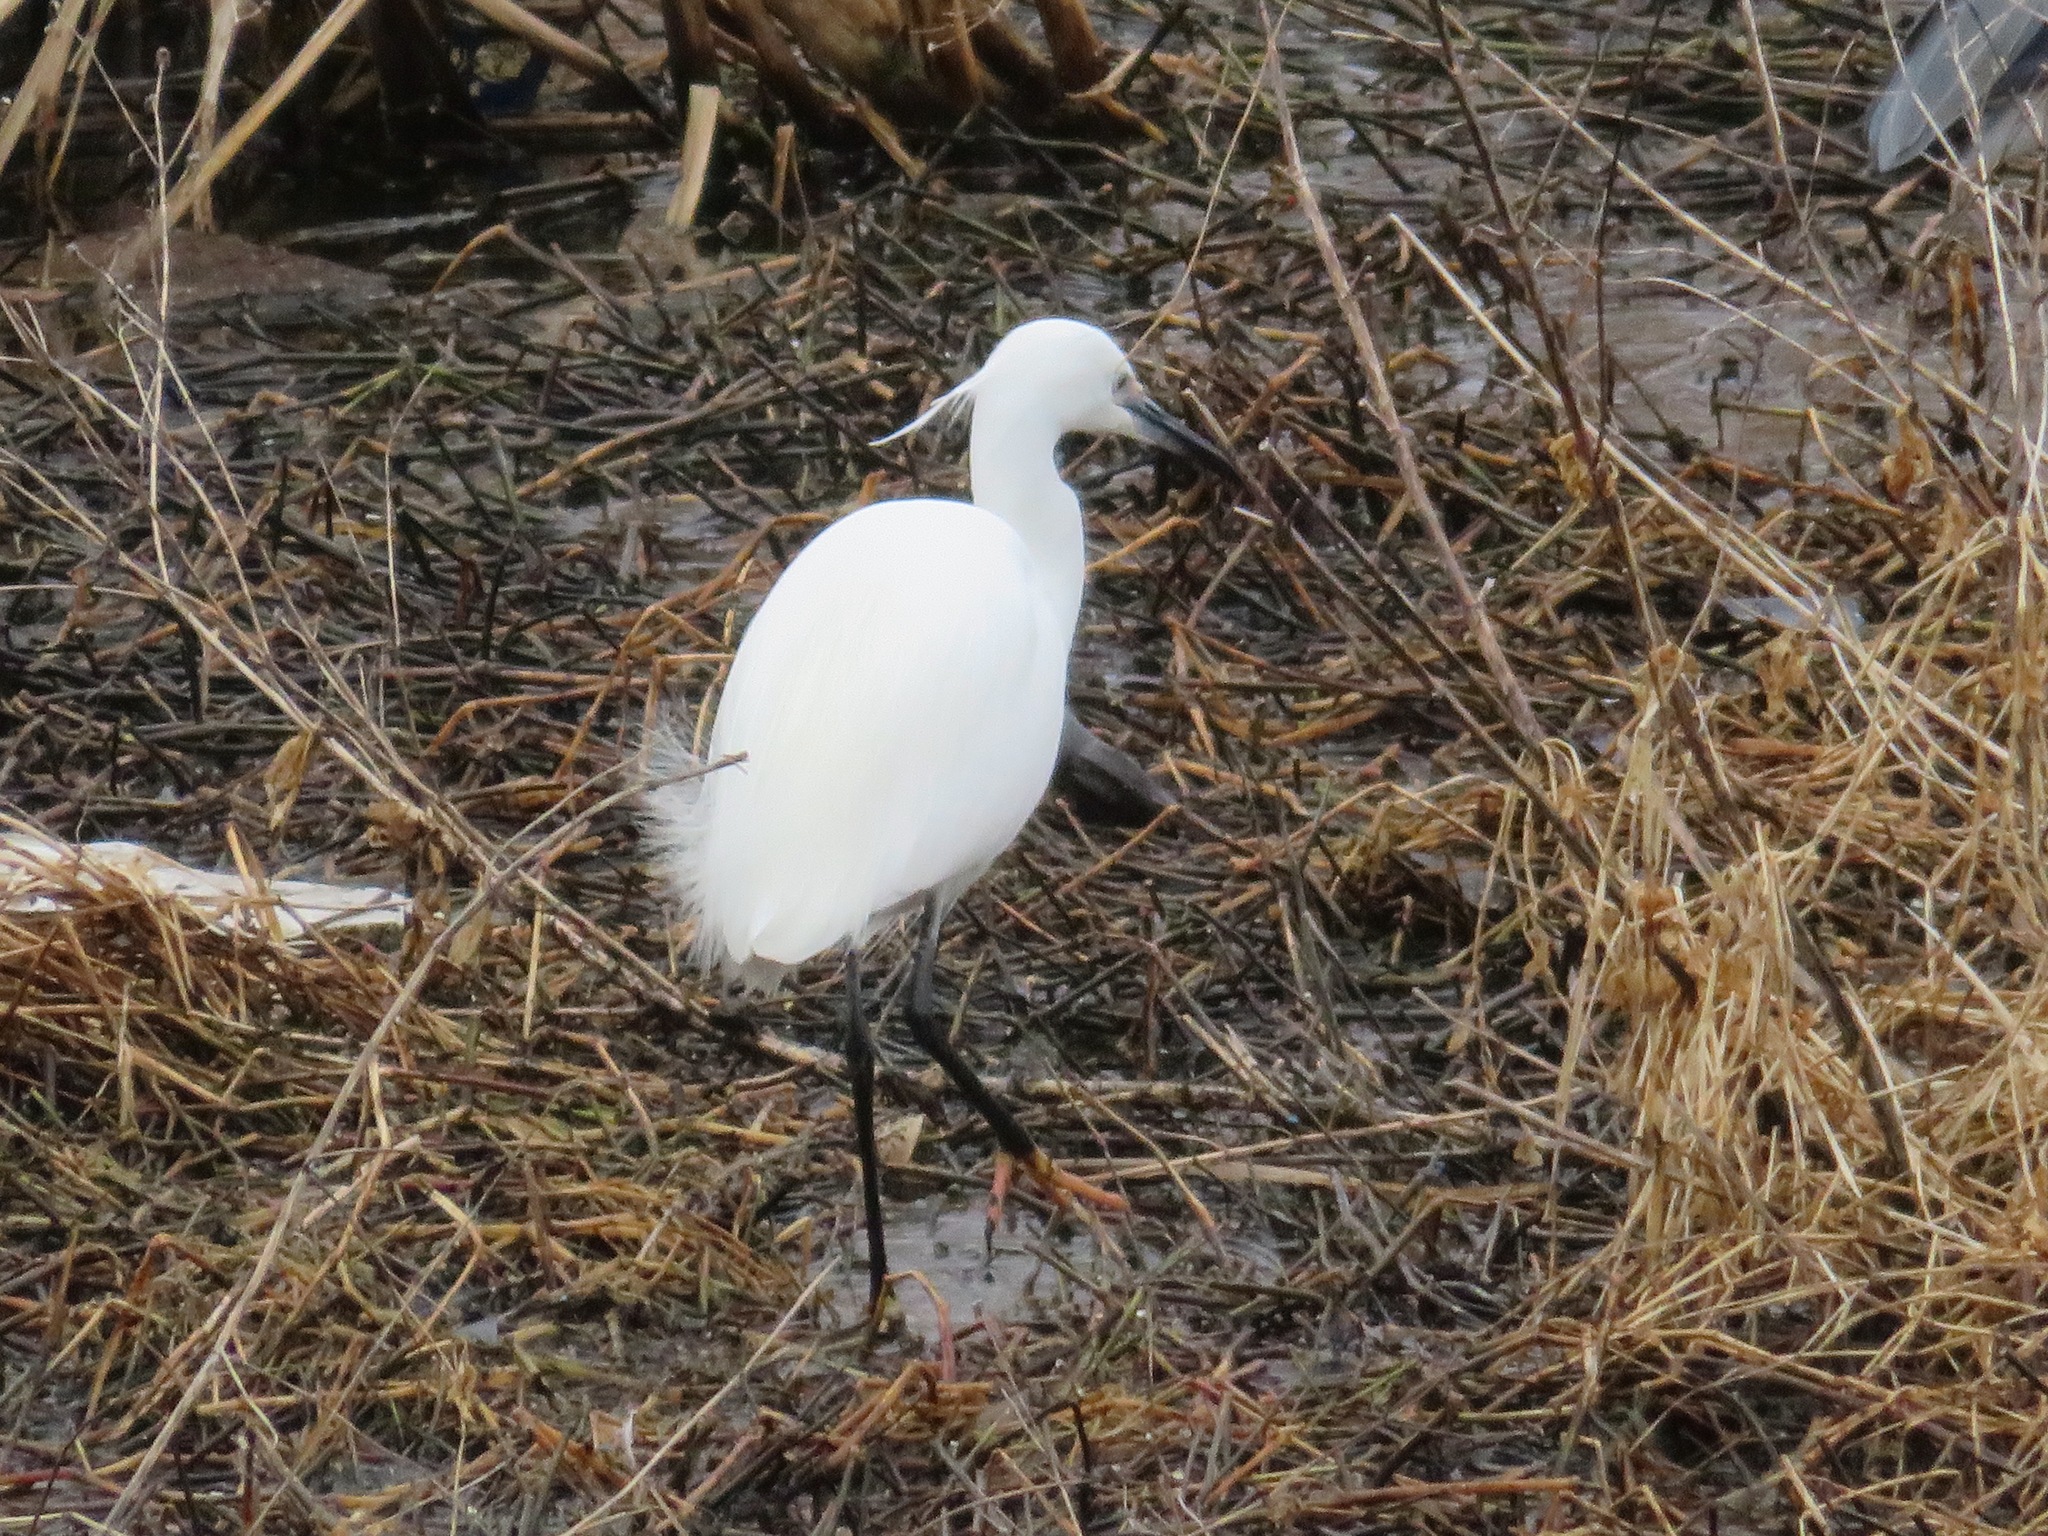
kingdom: Animalia
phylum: Chordata
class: Aves
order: Pelecaniformes
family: Ardeidae
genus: Egretta
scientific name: Egretta garzetta
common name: Little egret
